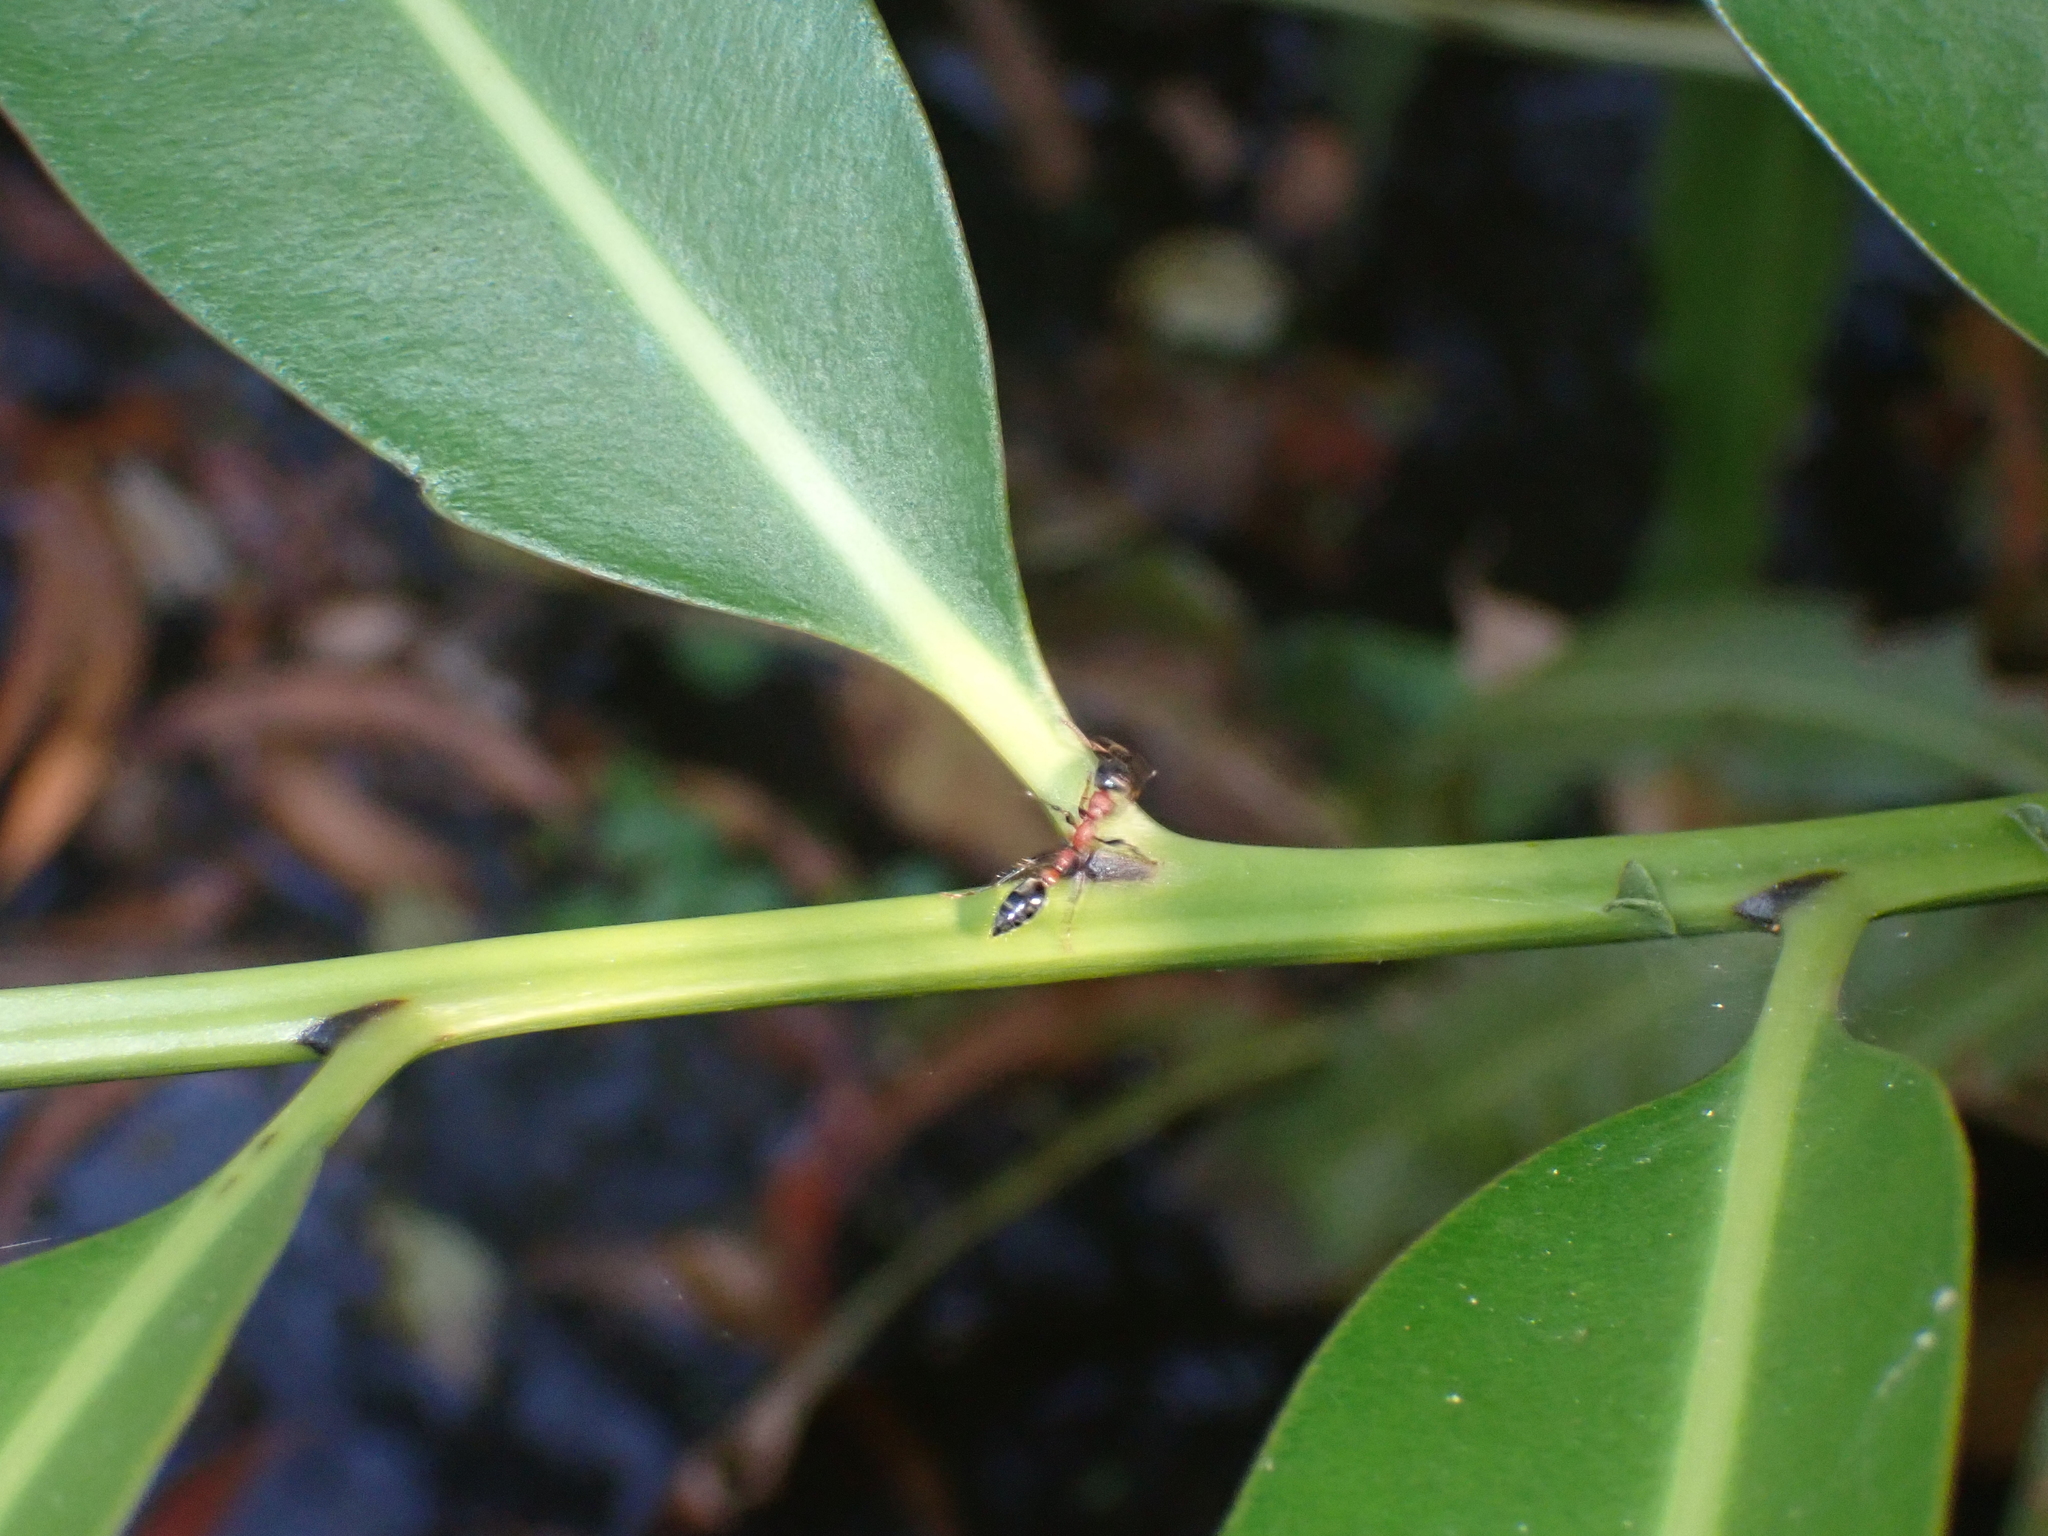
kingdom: Animalia
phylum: Arthropoda
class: Insecta
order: Hymenoptera
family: Formicidae
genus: Tetraponera
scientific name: Tetraponera rufonigra
